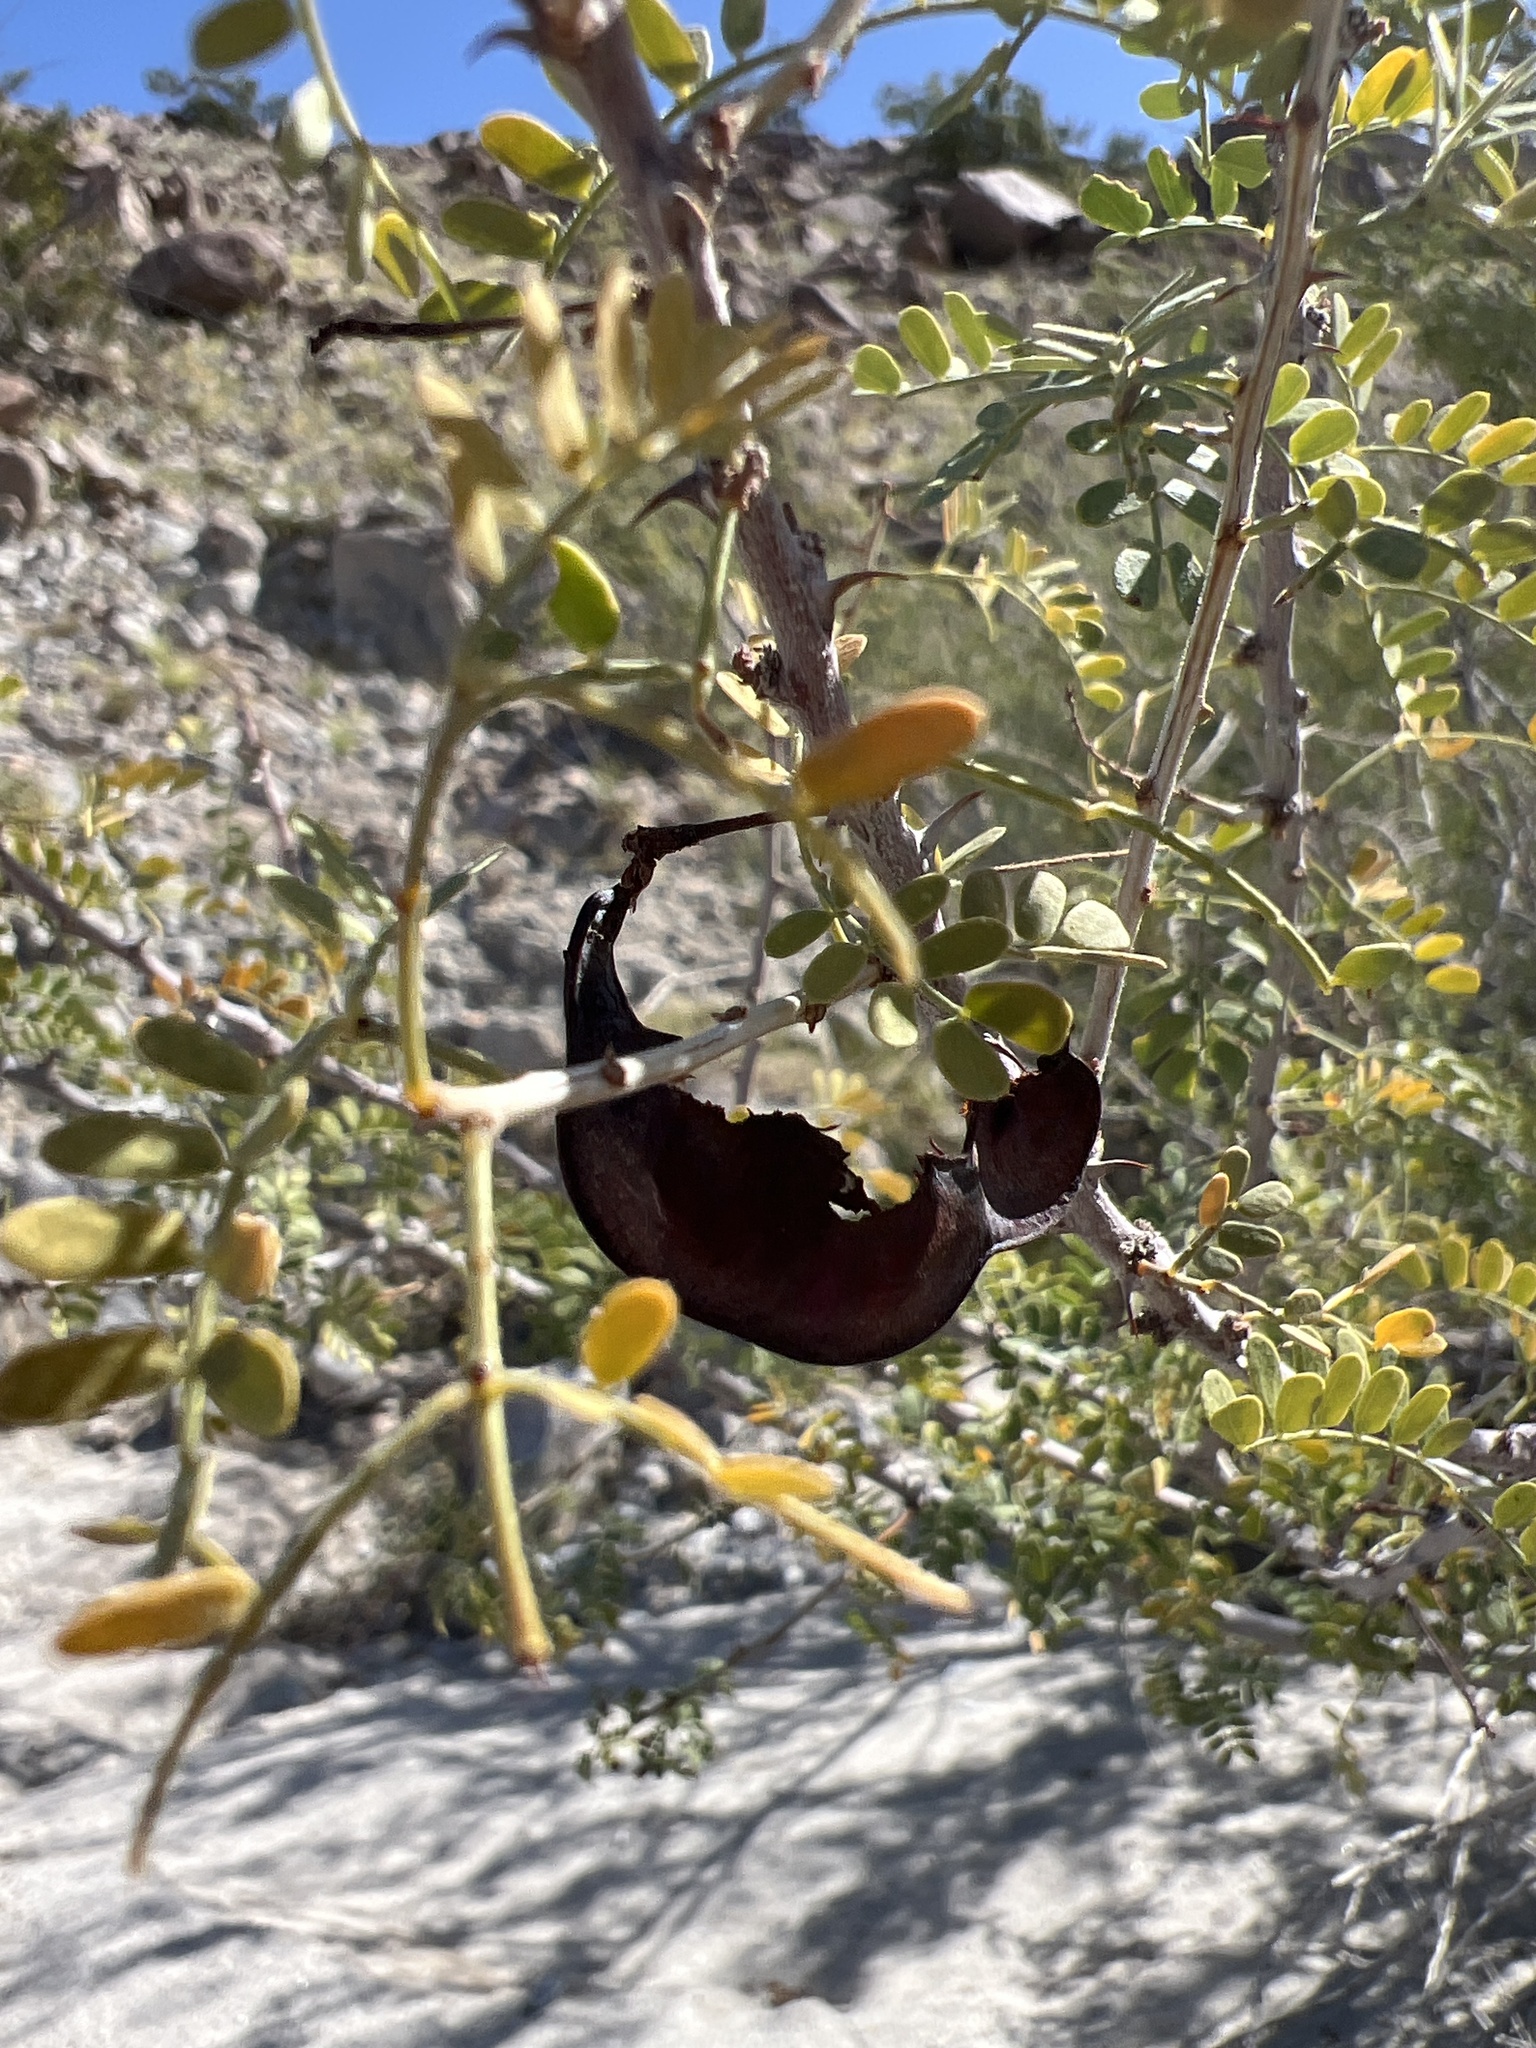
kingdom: Plantae
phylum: Tracheophyta
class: Magnoliopsida
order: Fabales
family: Fabaceae
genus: Senegalia
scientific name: Senegalia greggii
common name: Texas-mimosa
